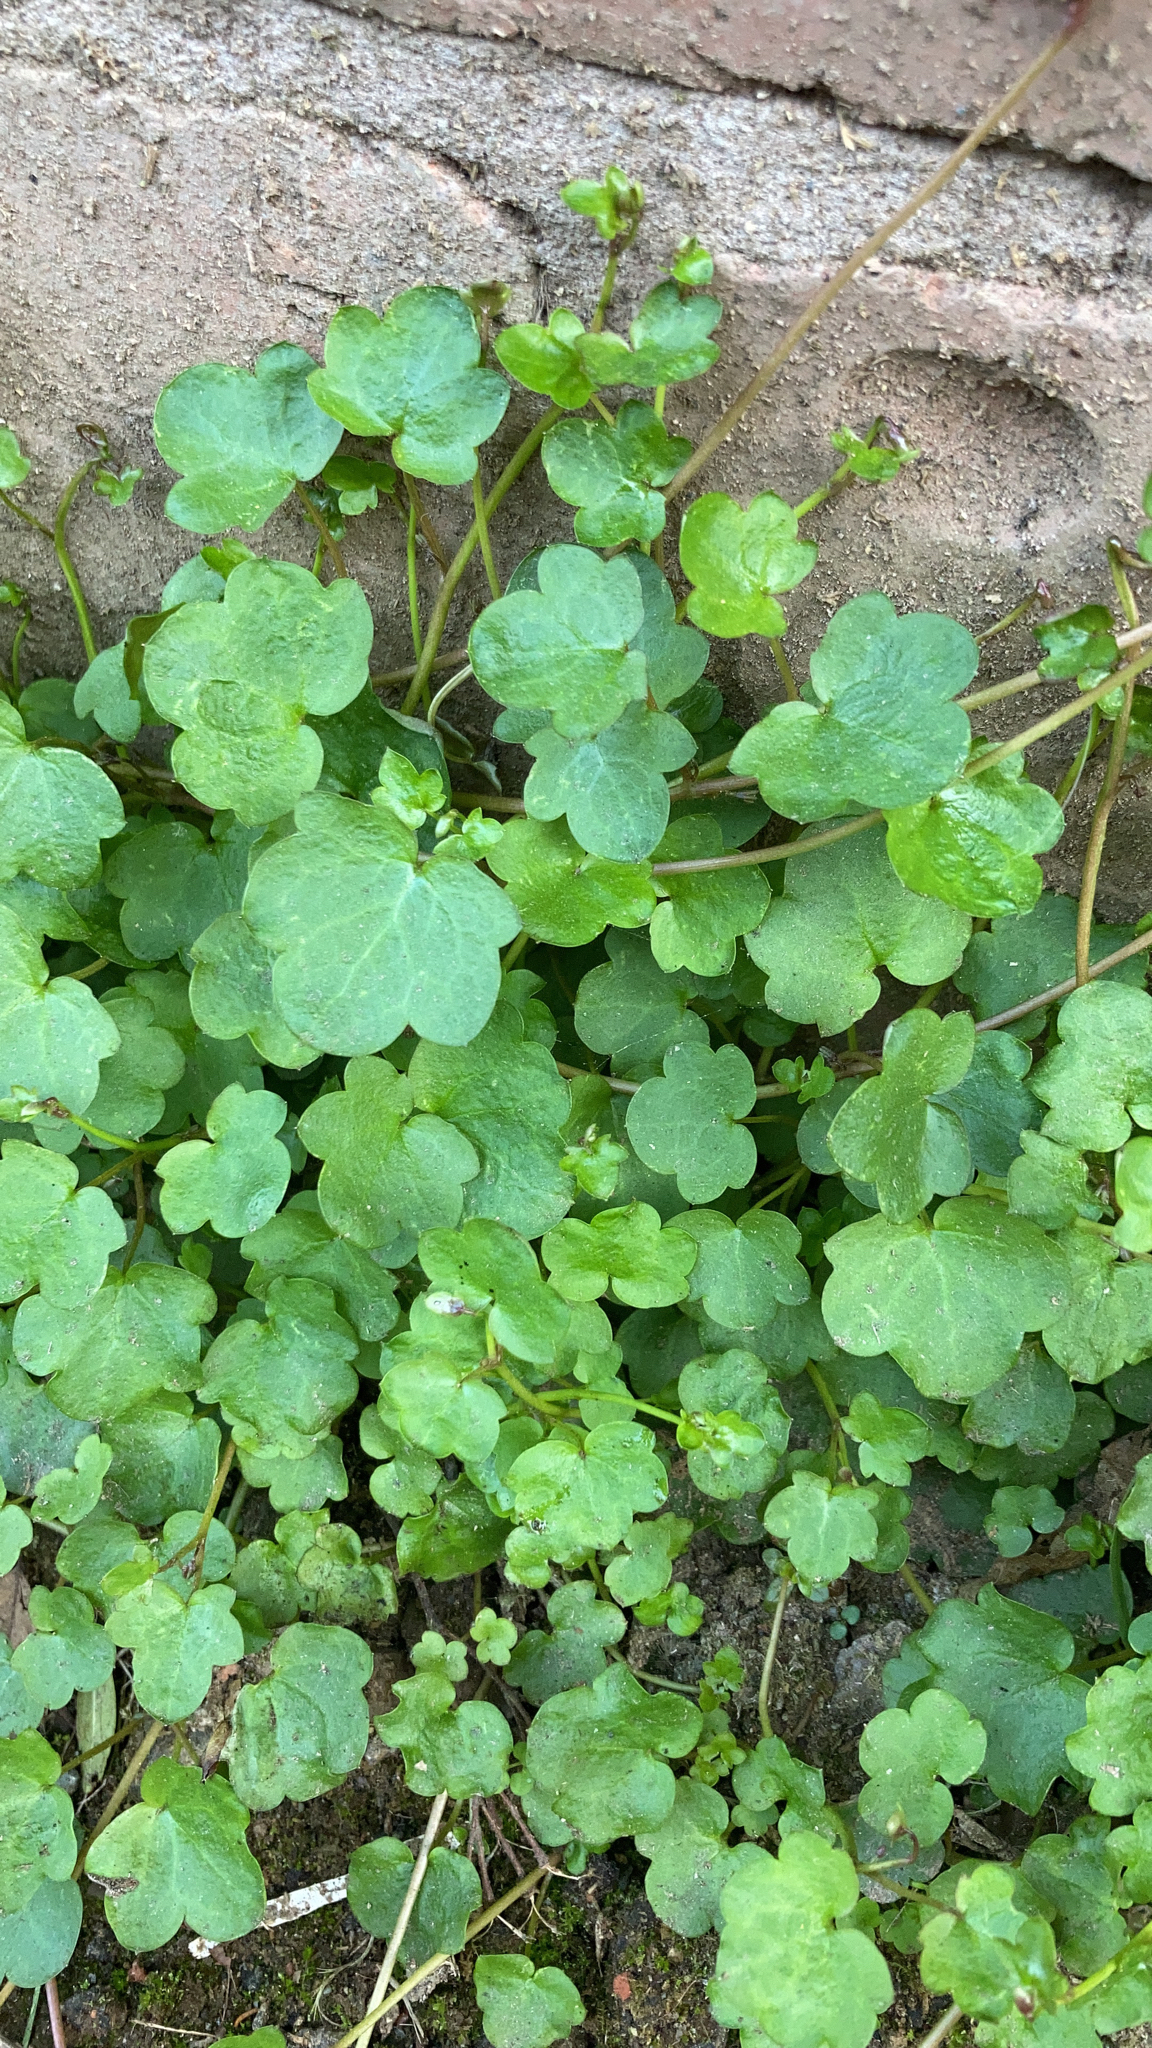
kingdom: Plantae
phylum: Tracheophyta
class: Magnoliopsida
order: Lamiales
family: Plantaginaceae
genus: Cymbalaria
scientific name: Cymbalaria muralis
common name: Ivy-leaved toadflax
